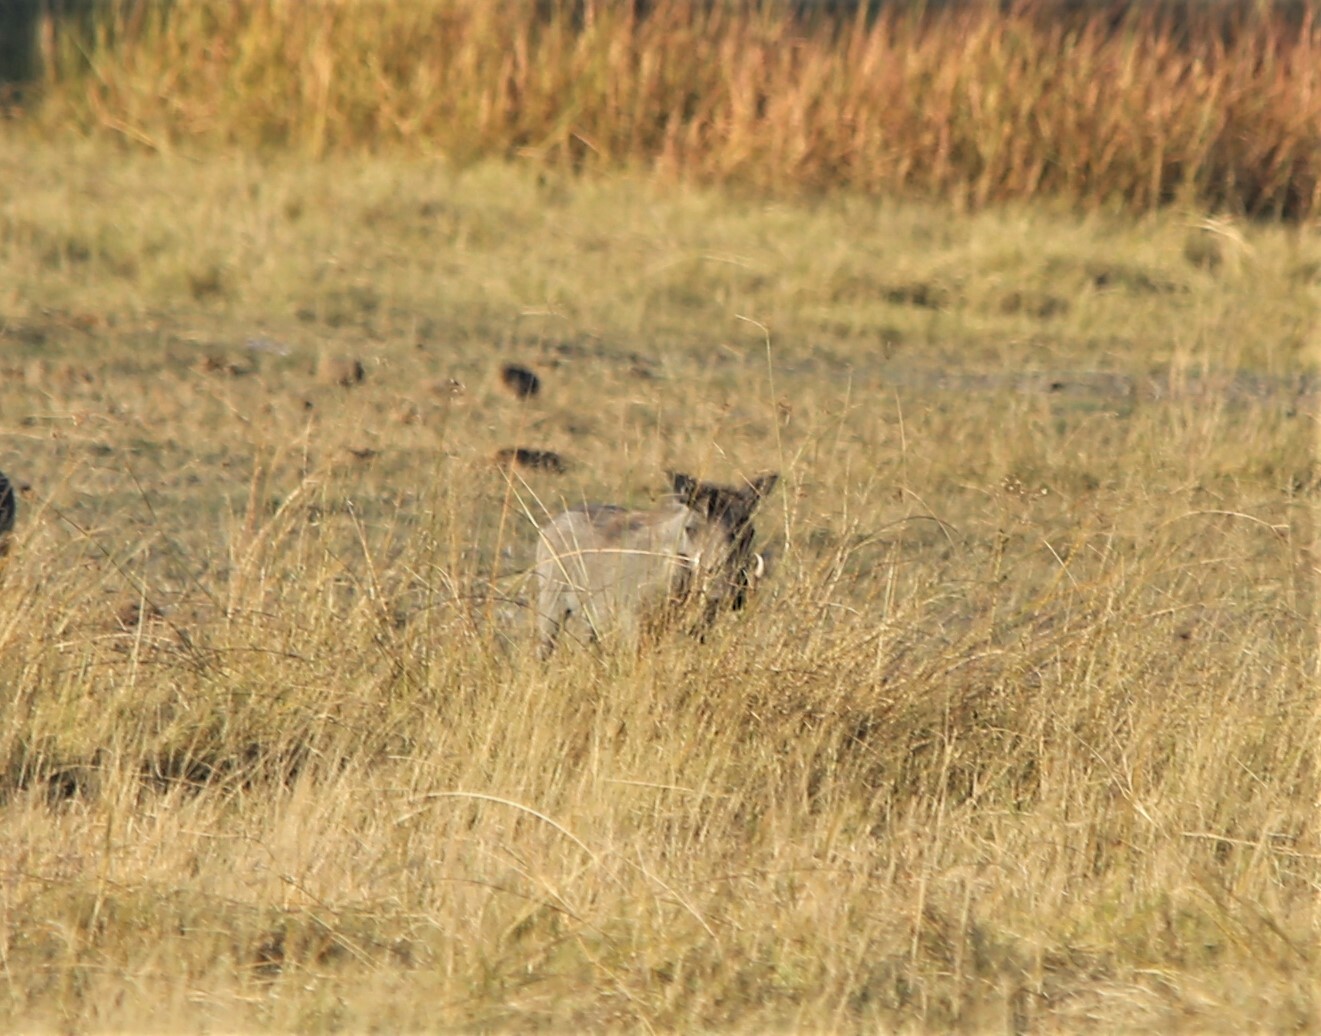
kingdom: Animalia
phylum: Chordata
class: Mammalia
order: Artiodactyla
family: Suidae
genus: Phacochoerus
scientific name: Phacochoerus africanus
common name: Common warthog
